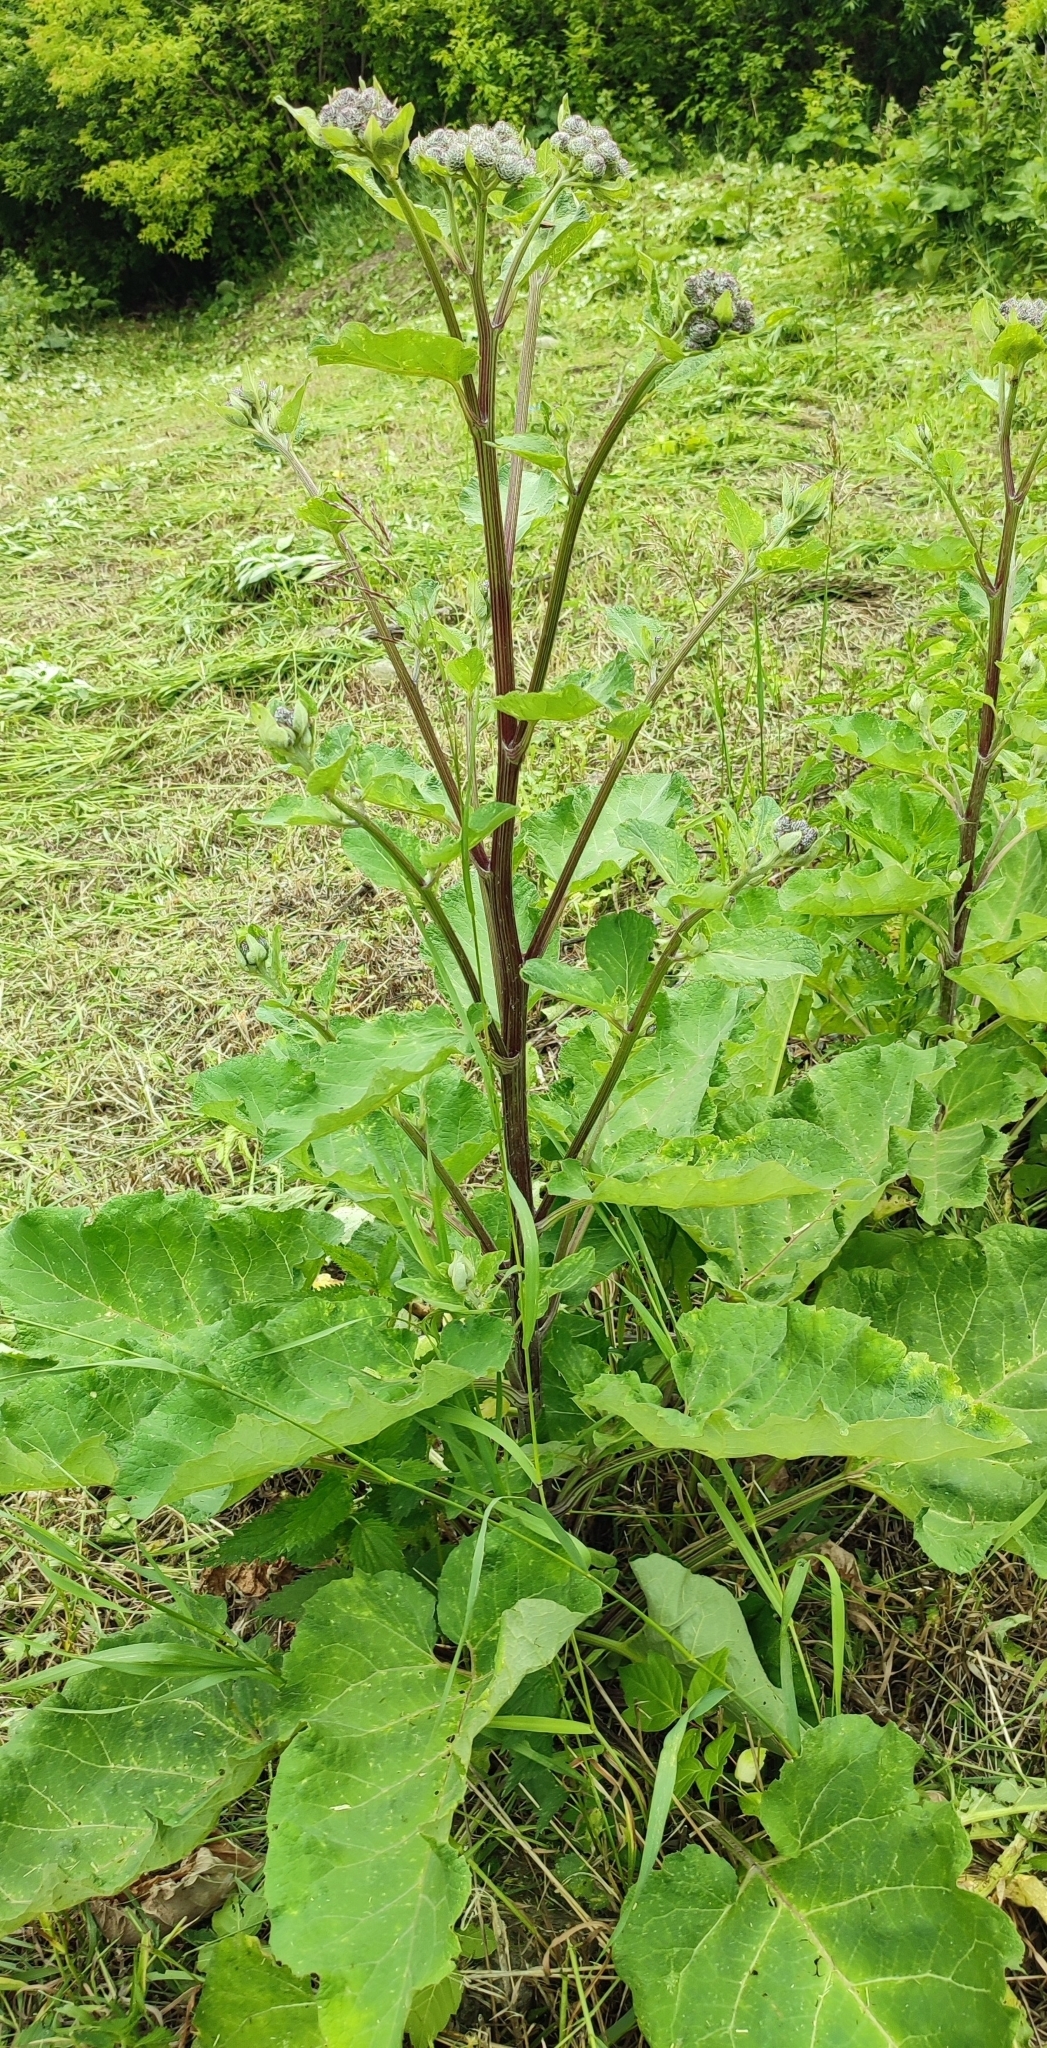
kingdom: Plantae
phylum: Tracheophyta
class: Magnoliopsida
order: Asterales
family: Asteraceae
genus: Arctium
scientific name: Arctium tomentosum
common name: Woolly burdock
